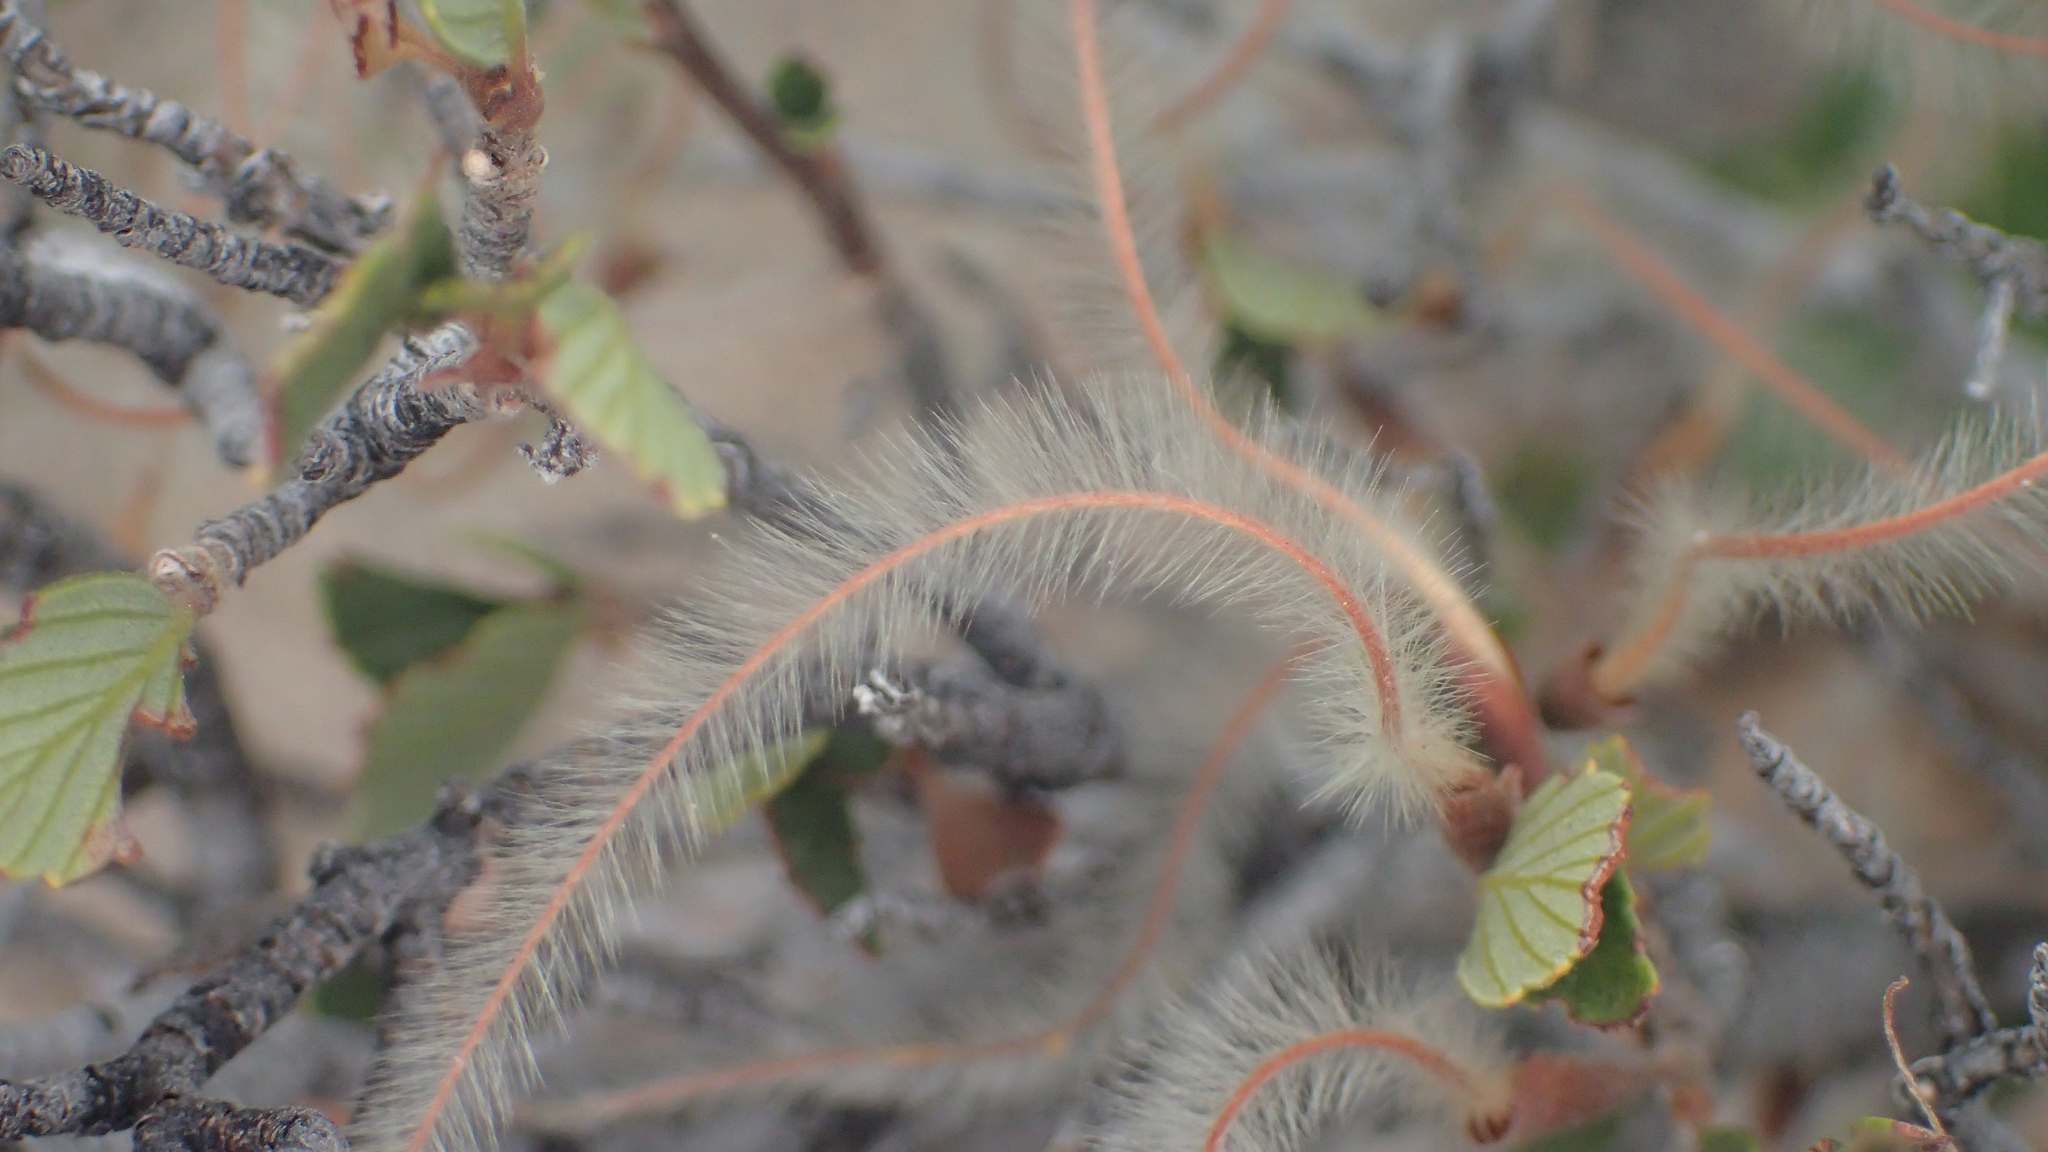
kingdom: Plantae
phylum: Tracheophyta
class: Magnoliopsida
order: Rosales
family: Rosaceae
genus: Cercocarpus
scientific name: Cercocarpus betuloides
